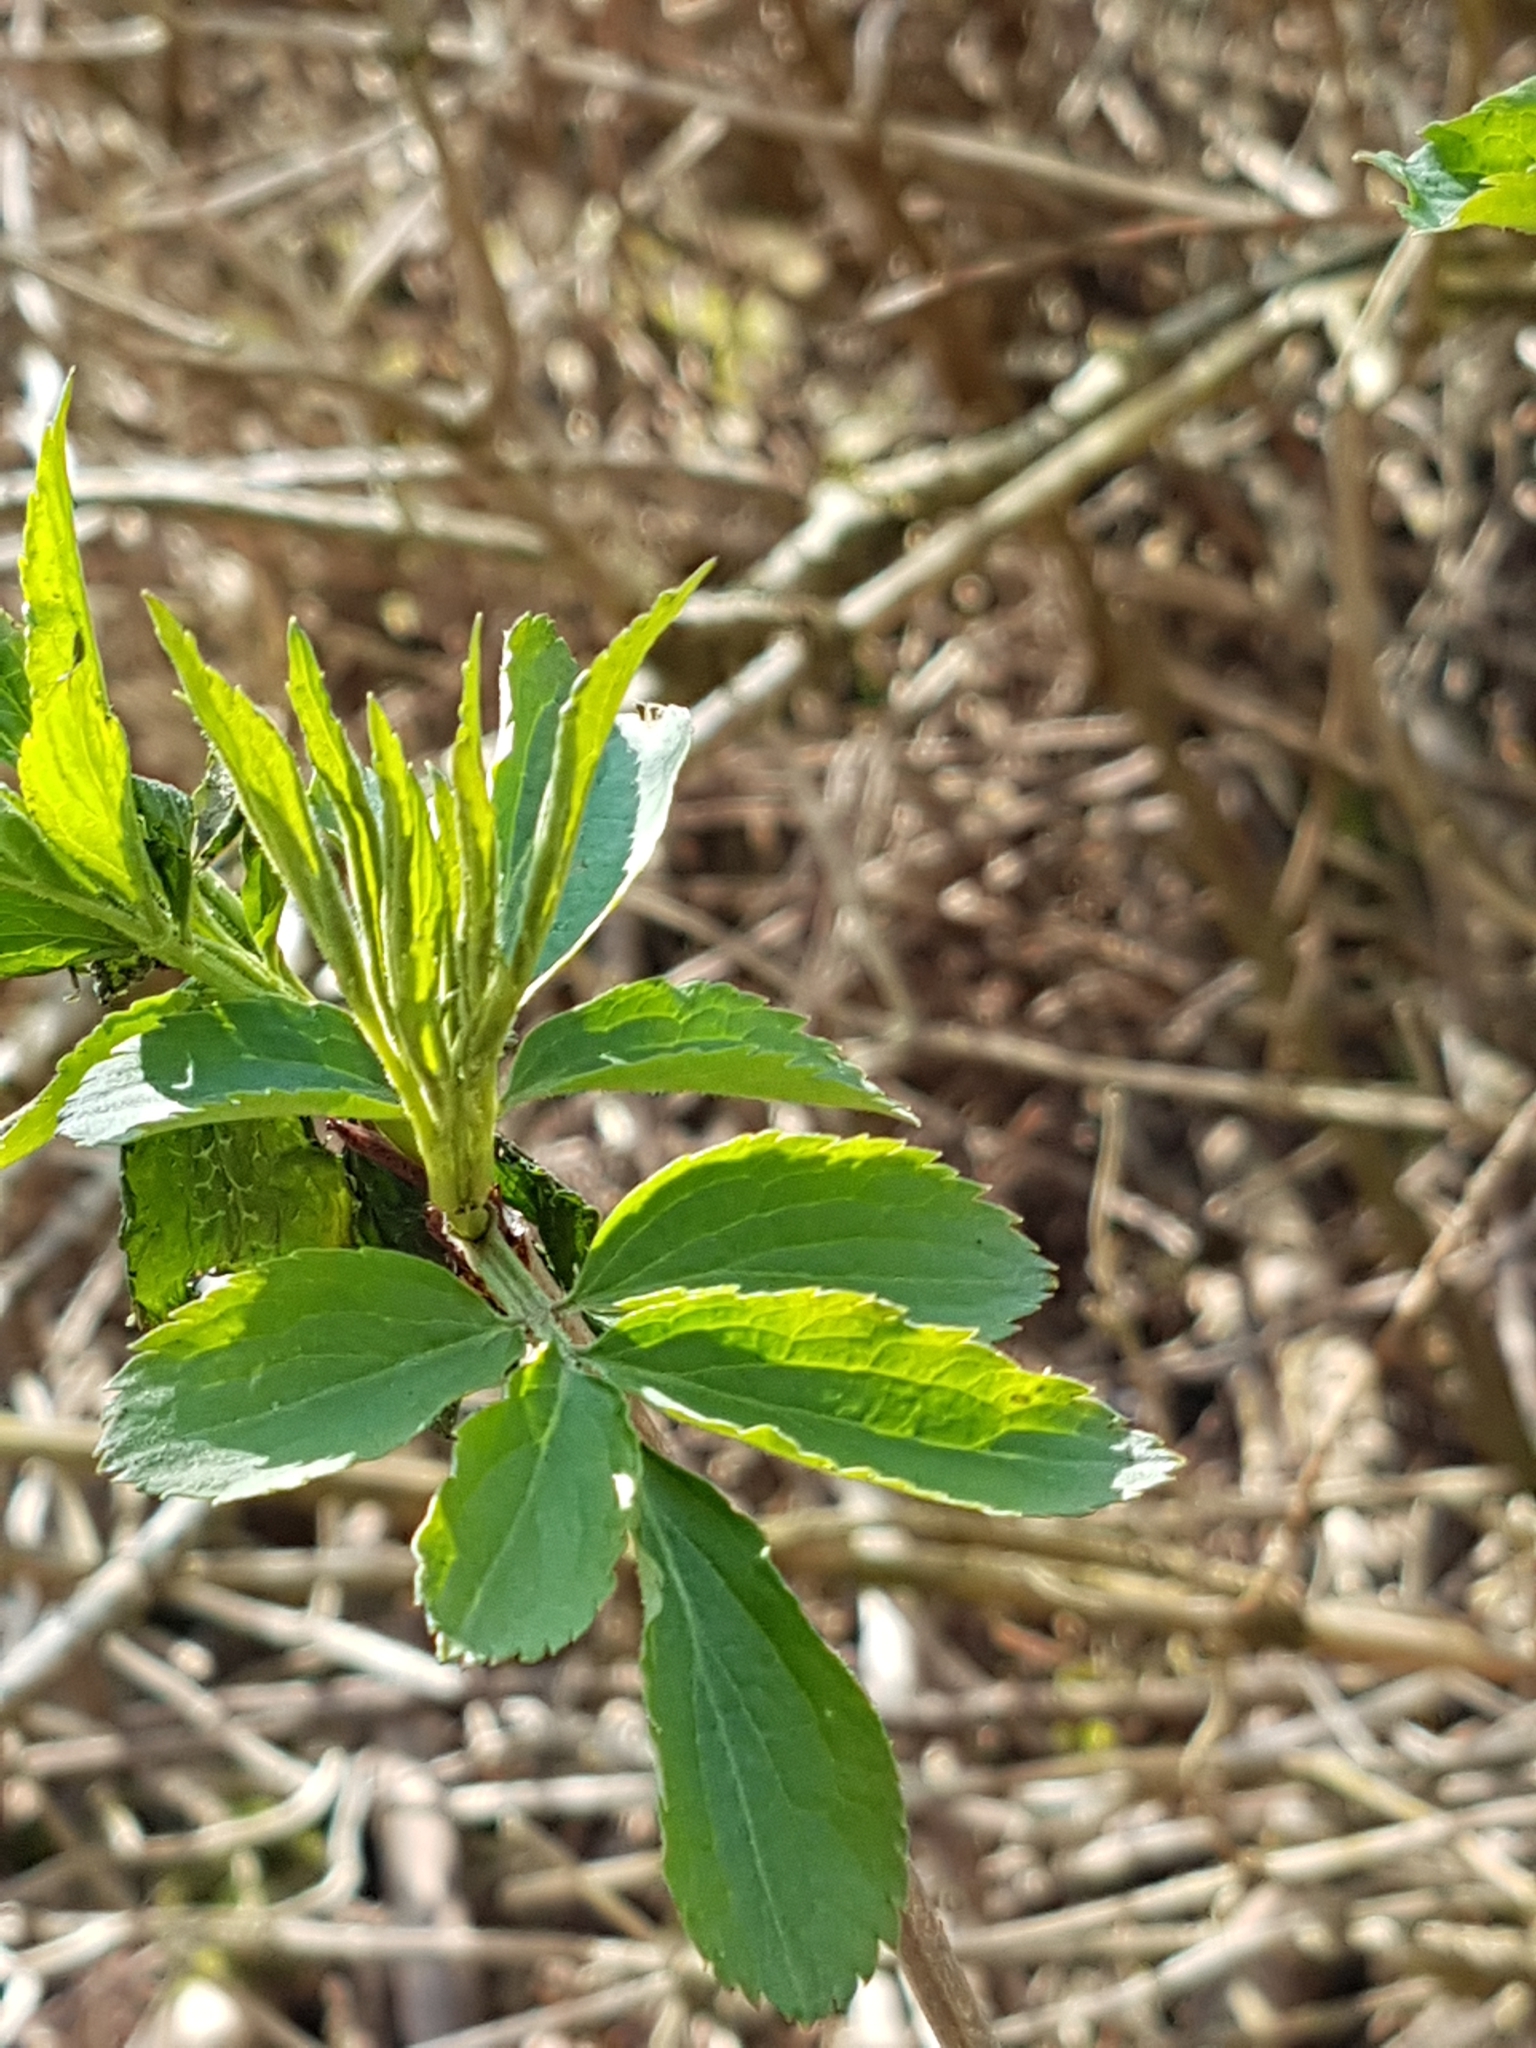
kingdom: Plantae
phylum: Tracheophyta
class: Magnoliopsida
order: Dipsacales
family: Viburnaceae
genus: Sambucus
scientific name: Sambucus nigra
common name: Elder
